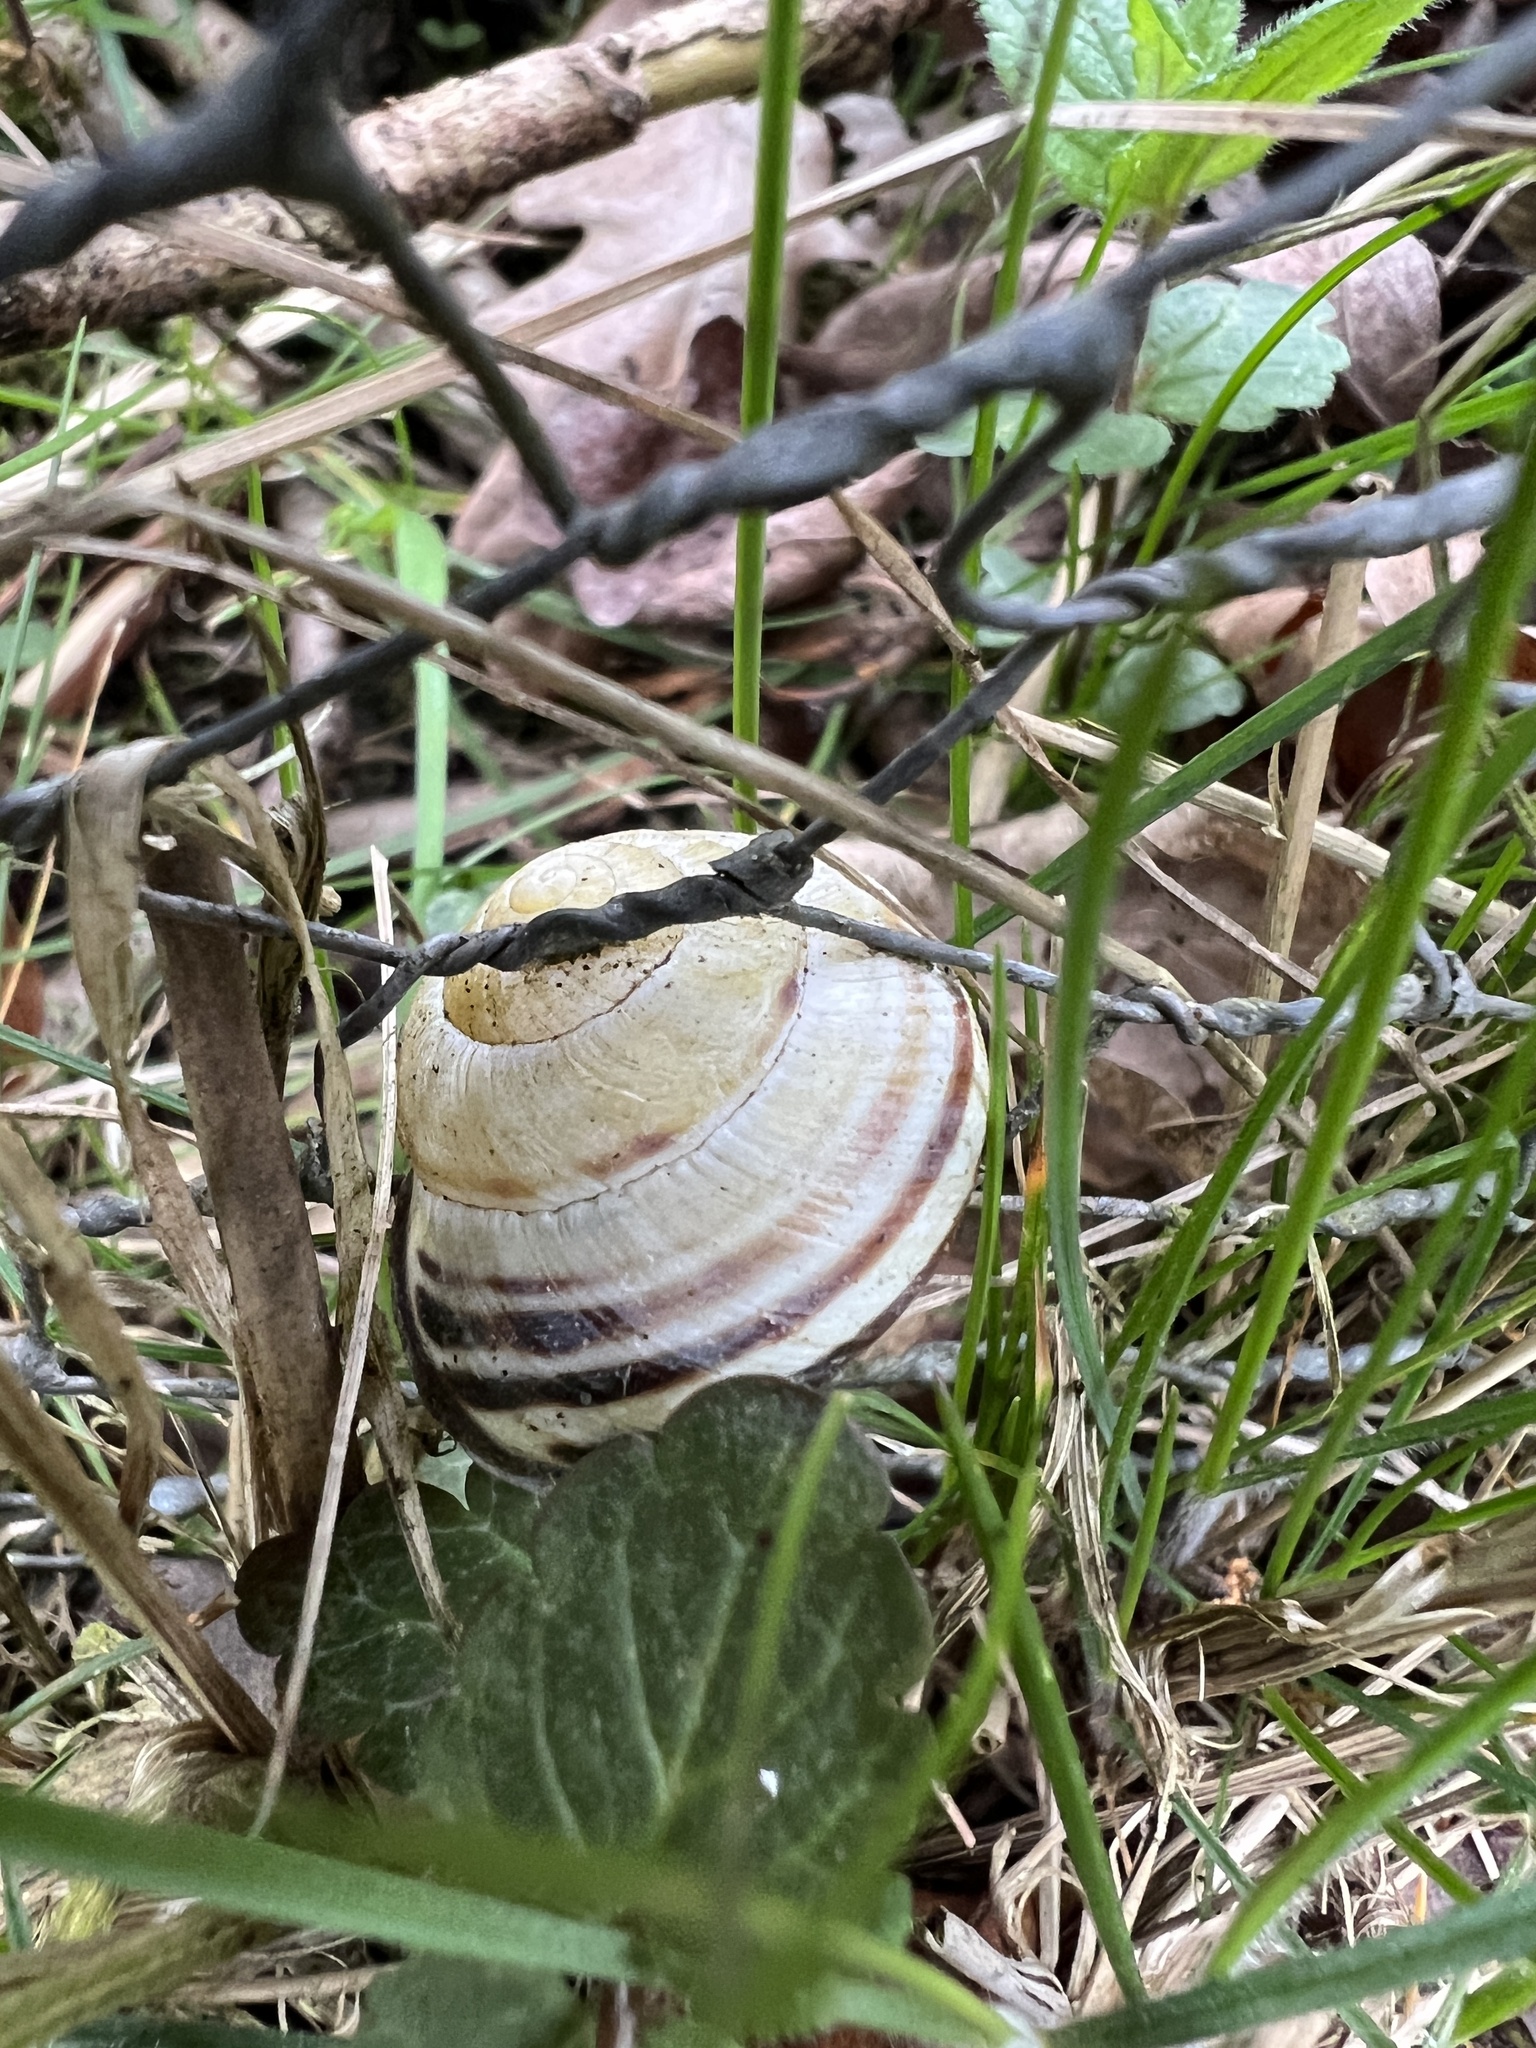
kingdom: Animalia
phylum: Mollusca
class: Gastropoda
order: Stylommatophora
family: Helicidae
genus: Cepaea
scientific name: Cepaea nemoralis
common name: Grovesnail
